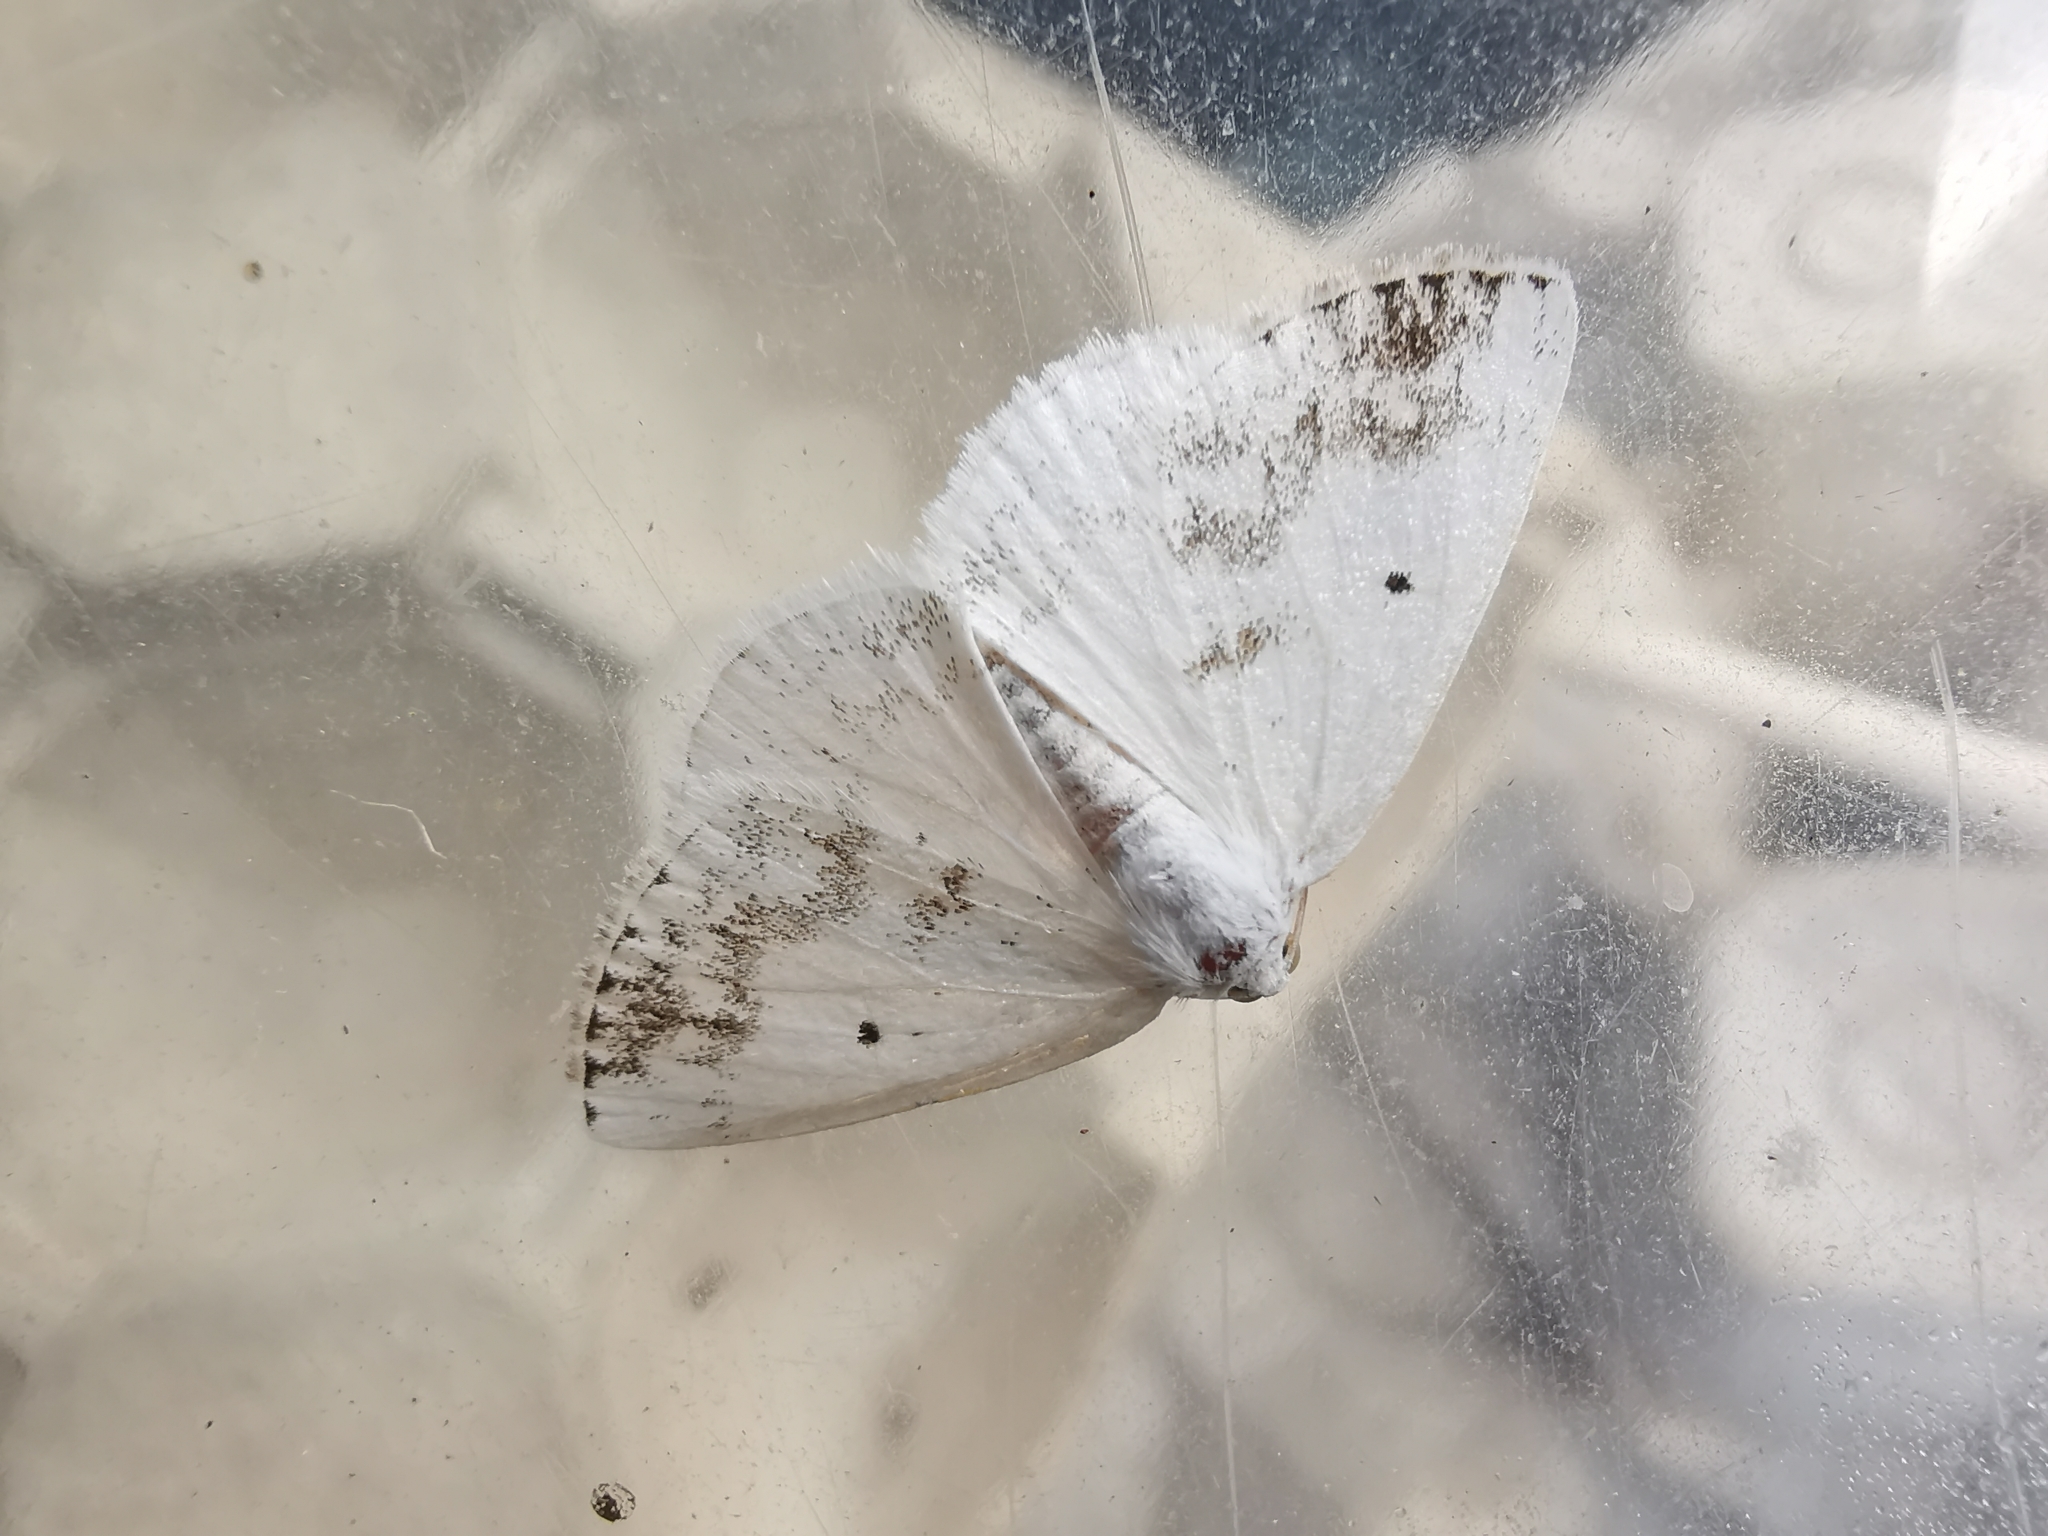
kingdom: Animalia
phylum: Arthropoda
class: Insecta
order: Lepidoptera
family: Geometridae
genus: Lomographa
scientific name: Lomographa temerata
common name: Clouded silver
